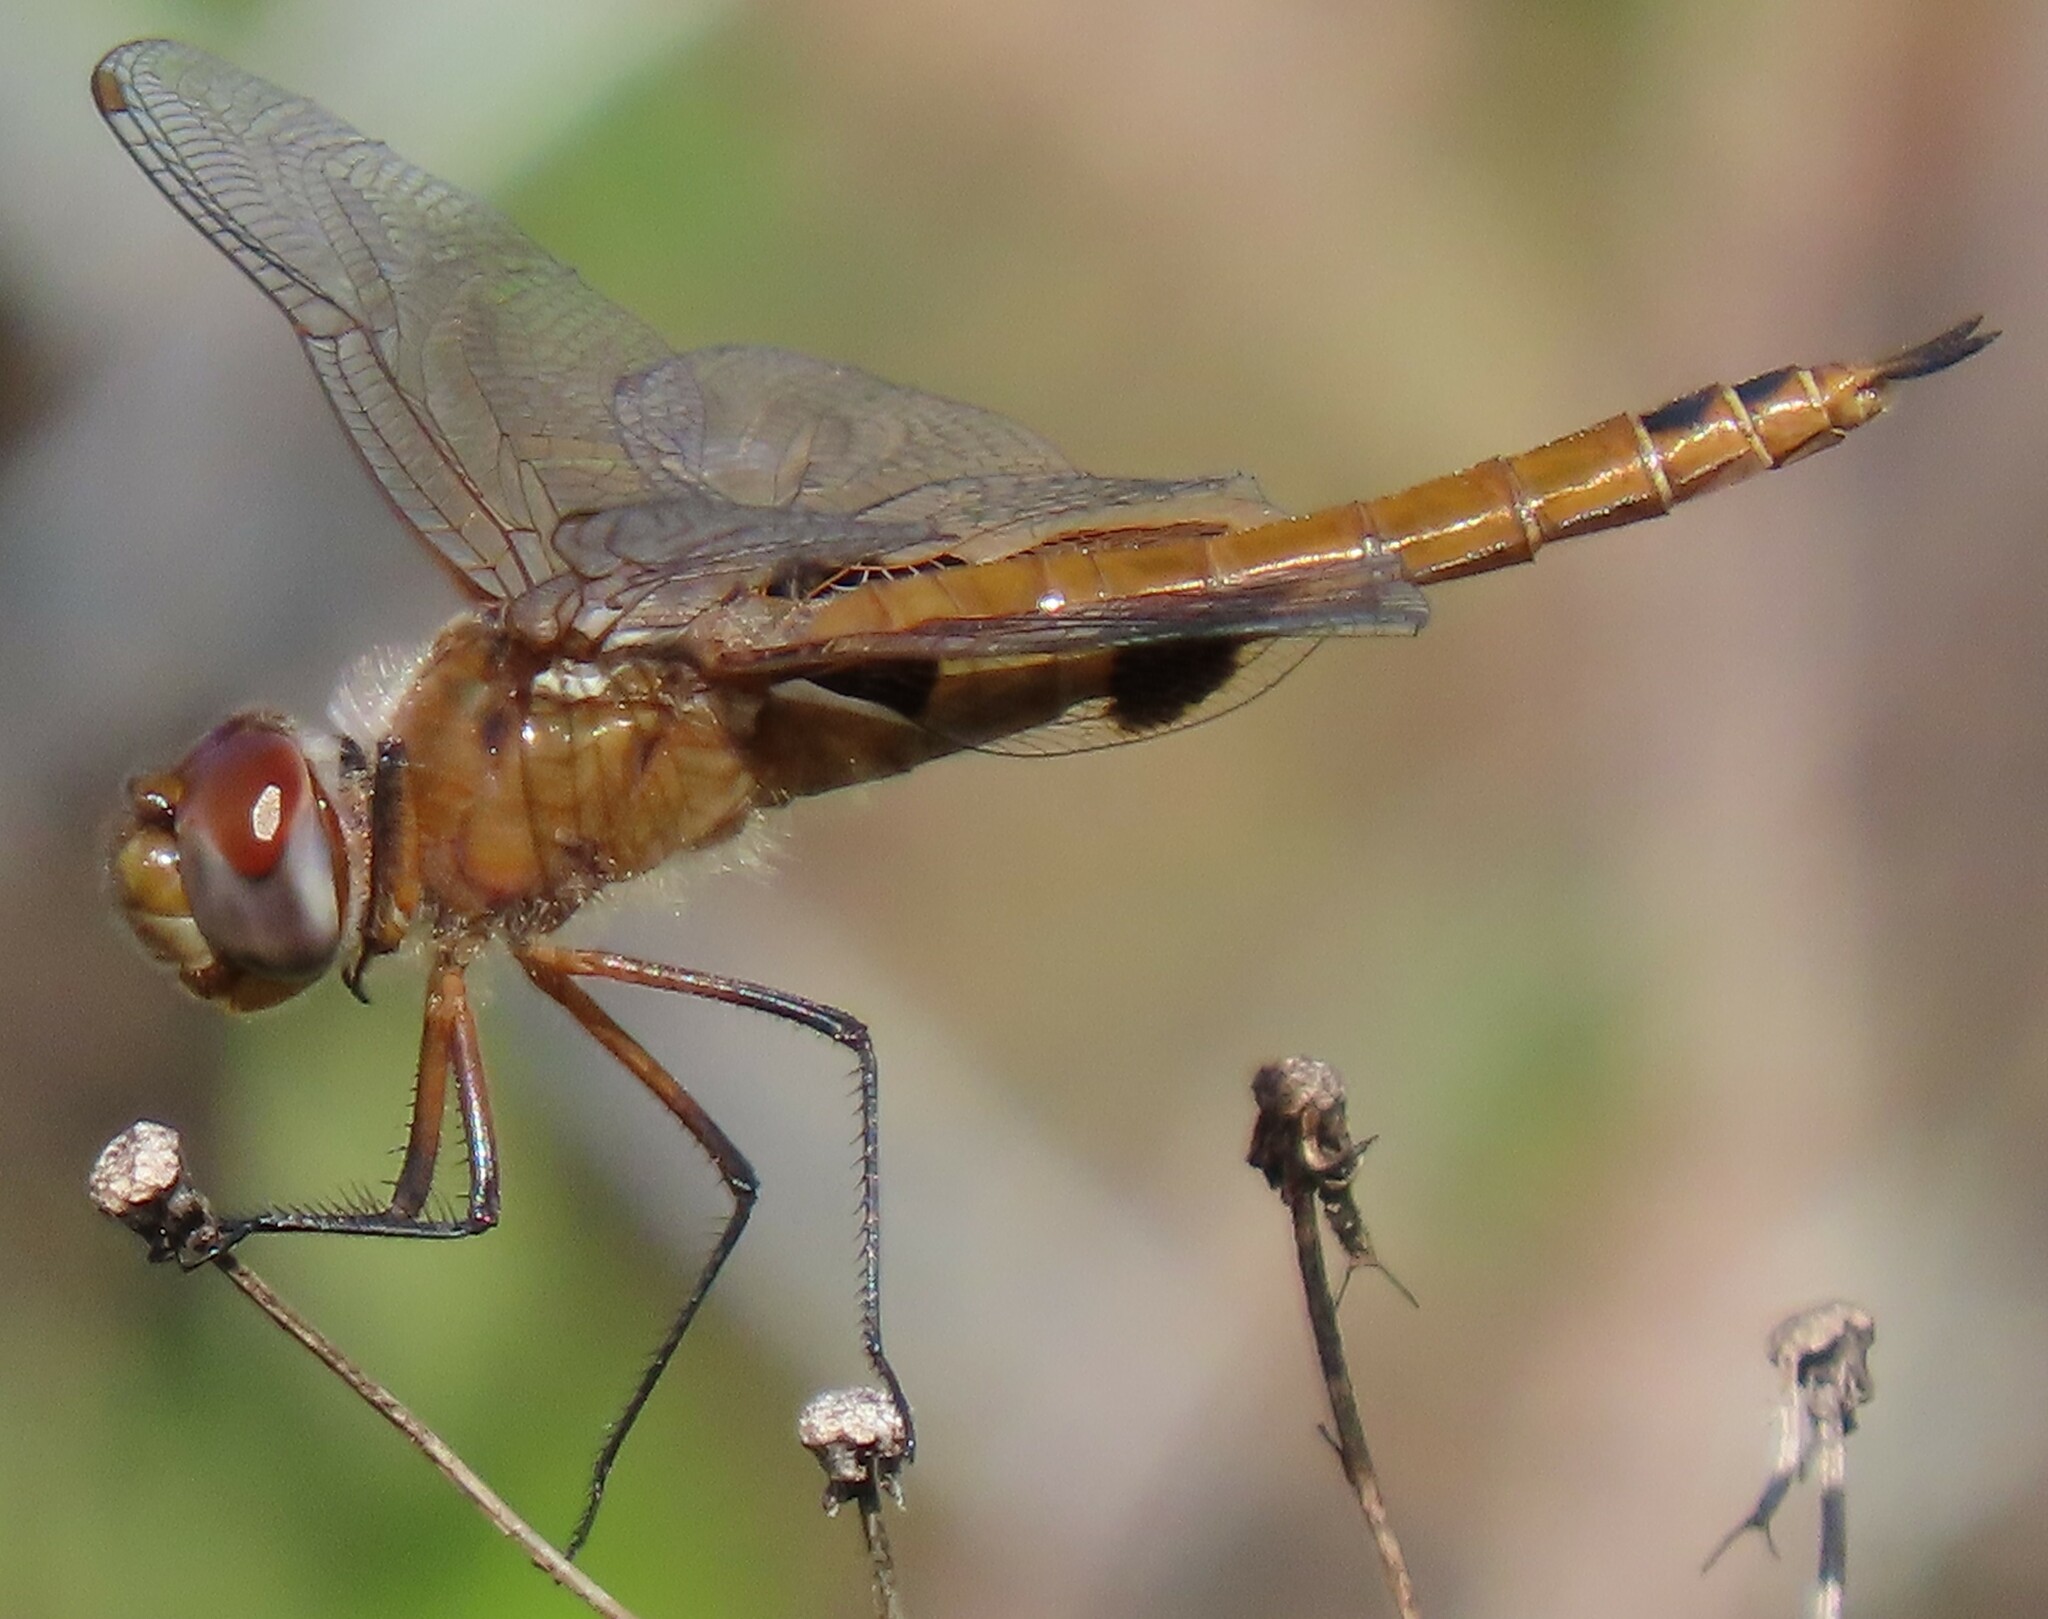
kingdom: Animalia
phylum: Arthropoda
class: Insecta
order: Odonata
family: Libellulidae
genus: Tramea
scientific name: Tramea onusta
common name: Red saddlebags
